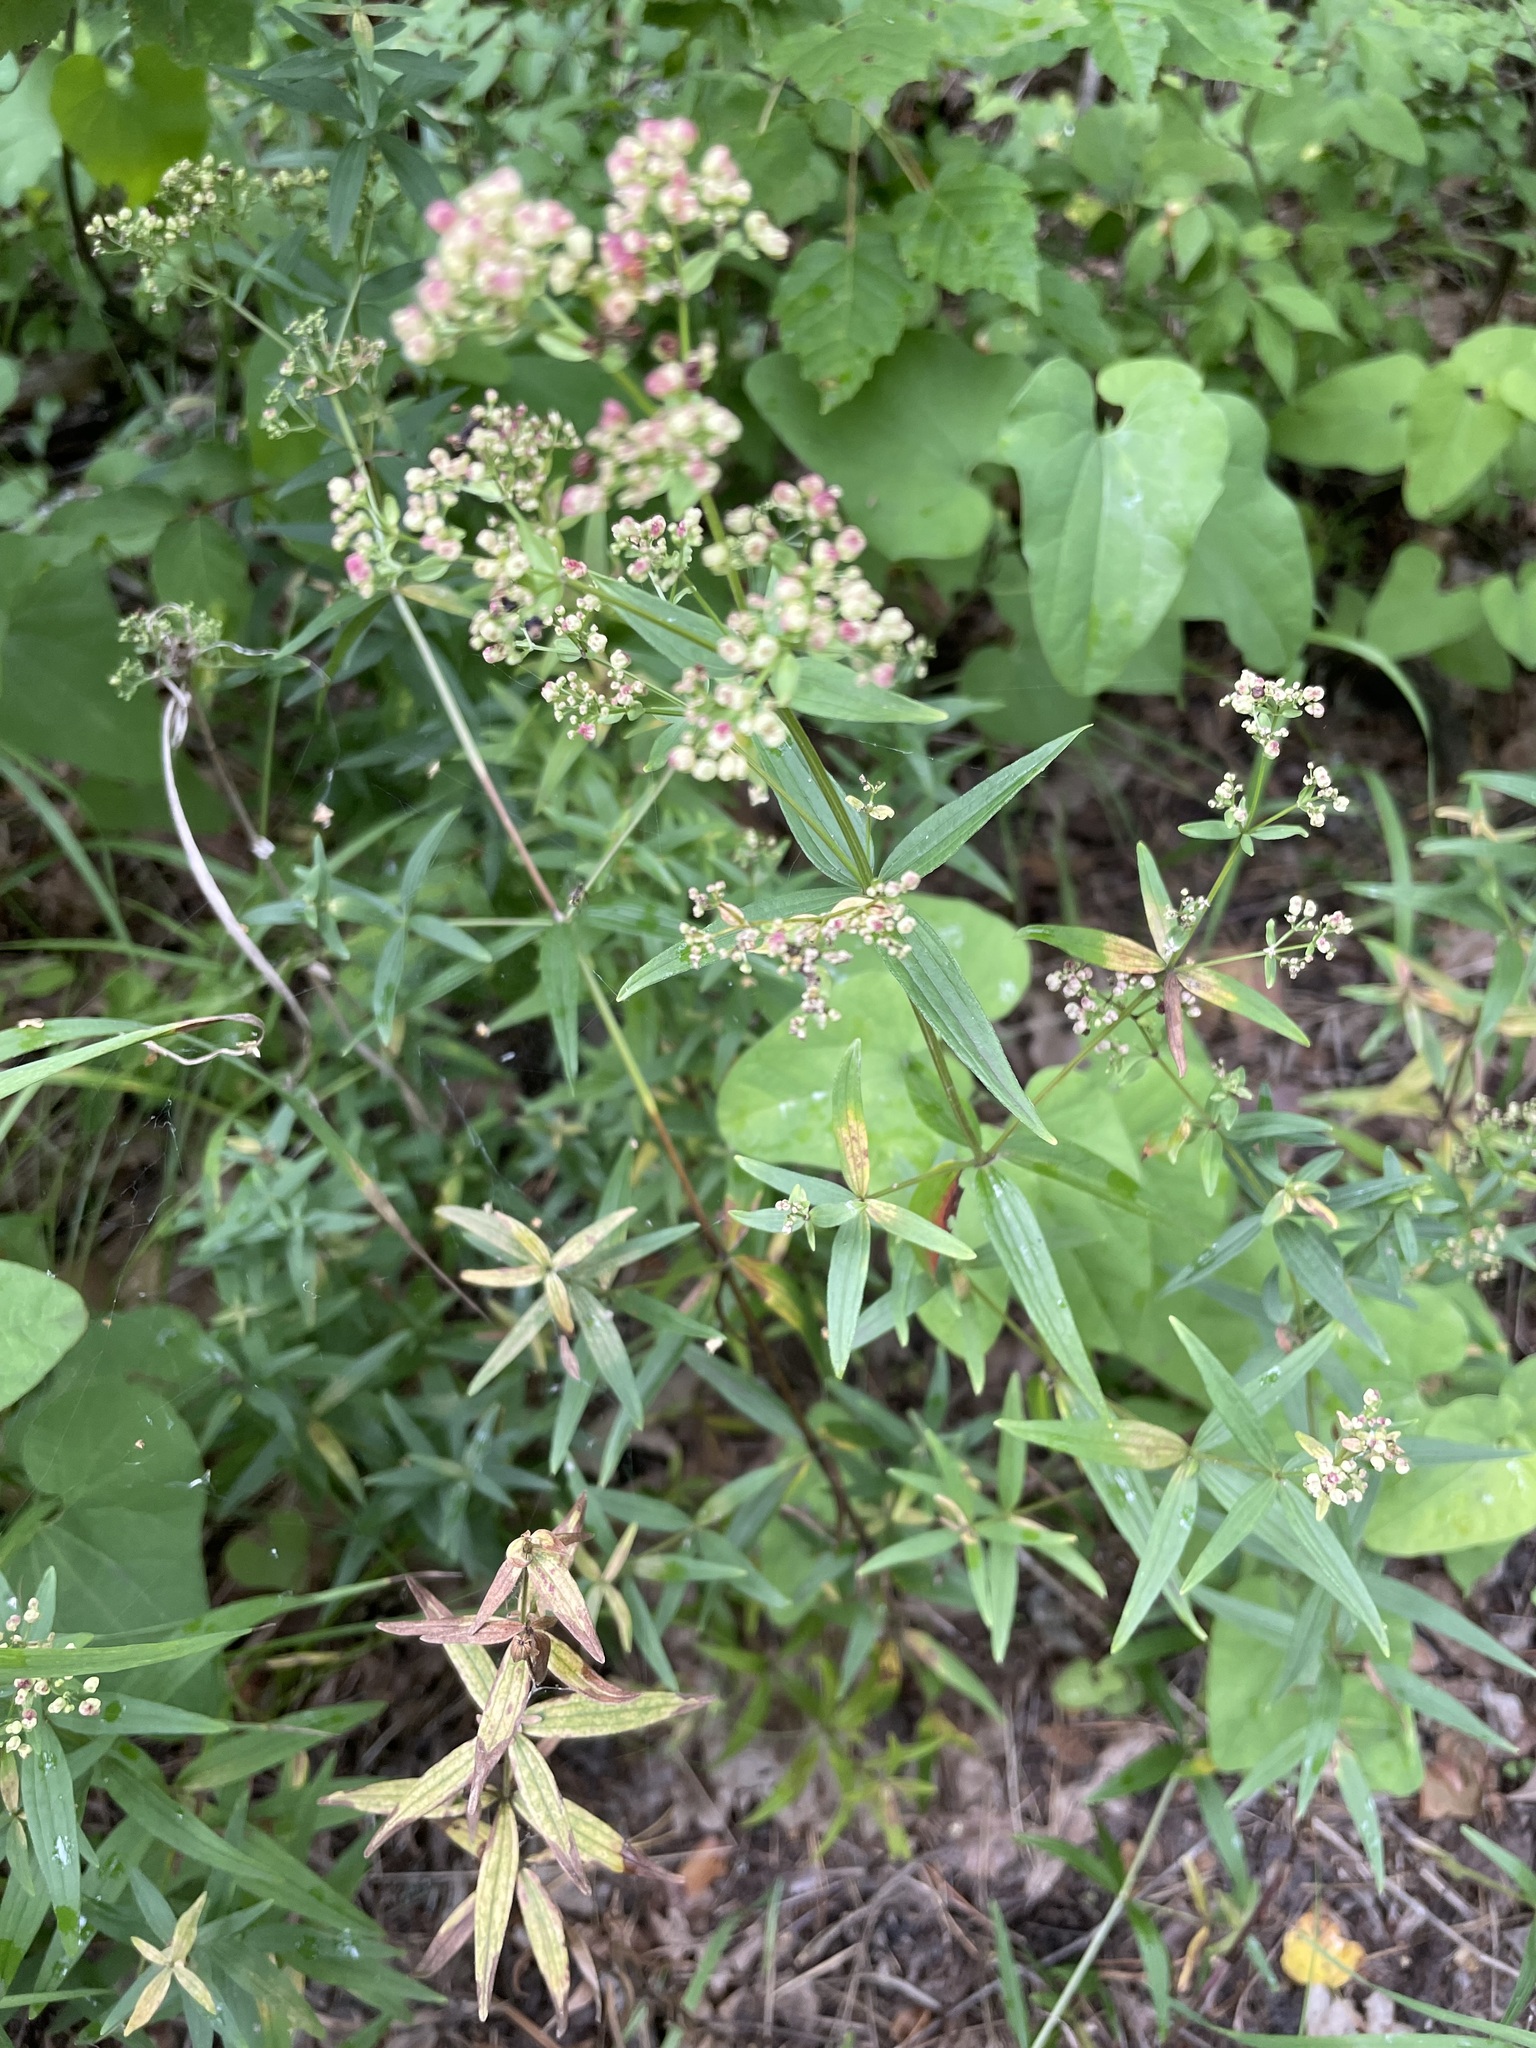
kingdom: Plantae
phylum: Tracheophyta
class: Magnoliopsida
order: Gentianales
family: Rubiaceae
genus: Galium
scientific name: Galium boreale
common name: Northern bedstraw
